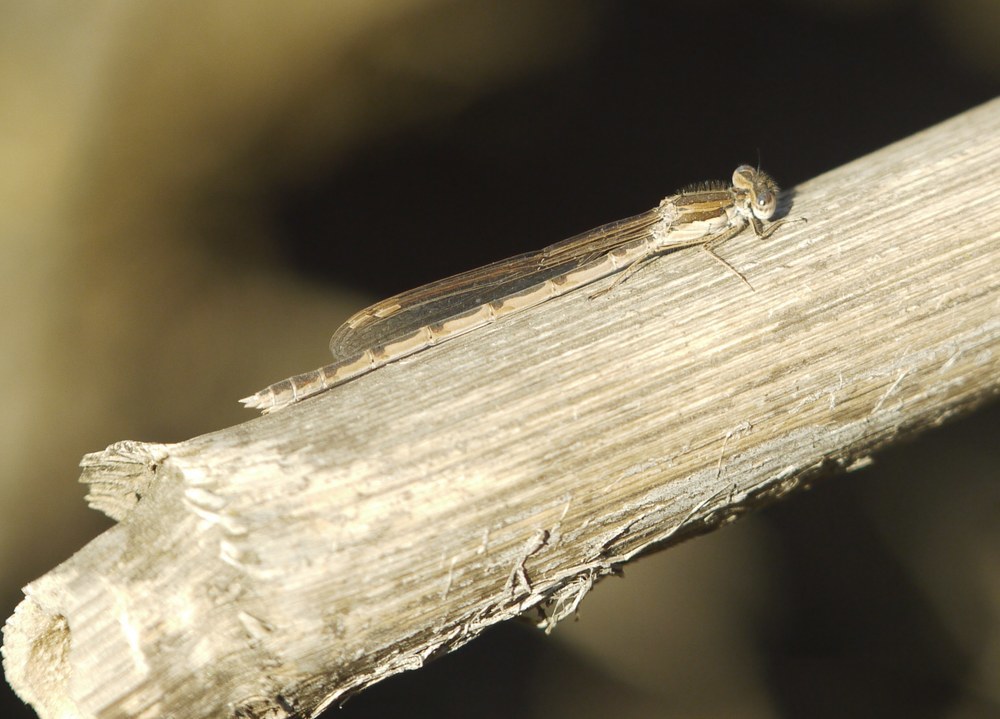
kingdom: Animalia
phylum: Arthropoda
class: Insecta
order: Odonata
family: Lestidae
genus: Sympecma
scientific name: Sympecma fusca
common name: Common winter damsel
